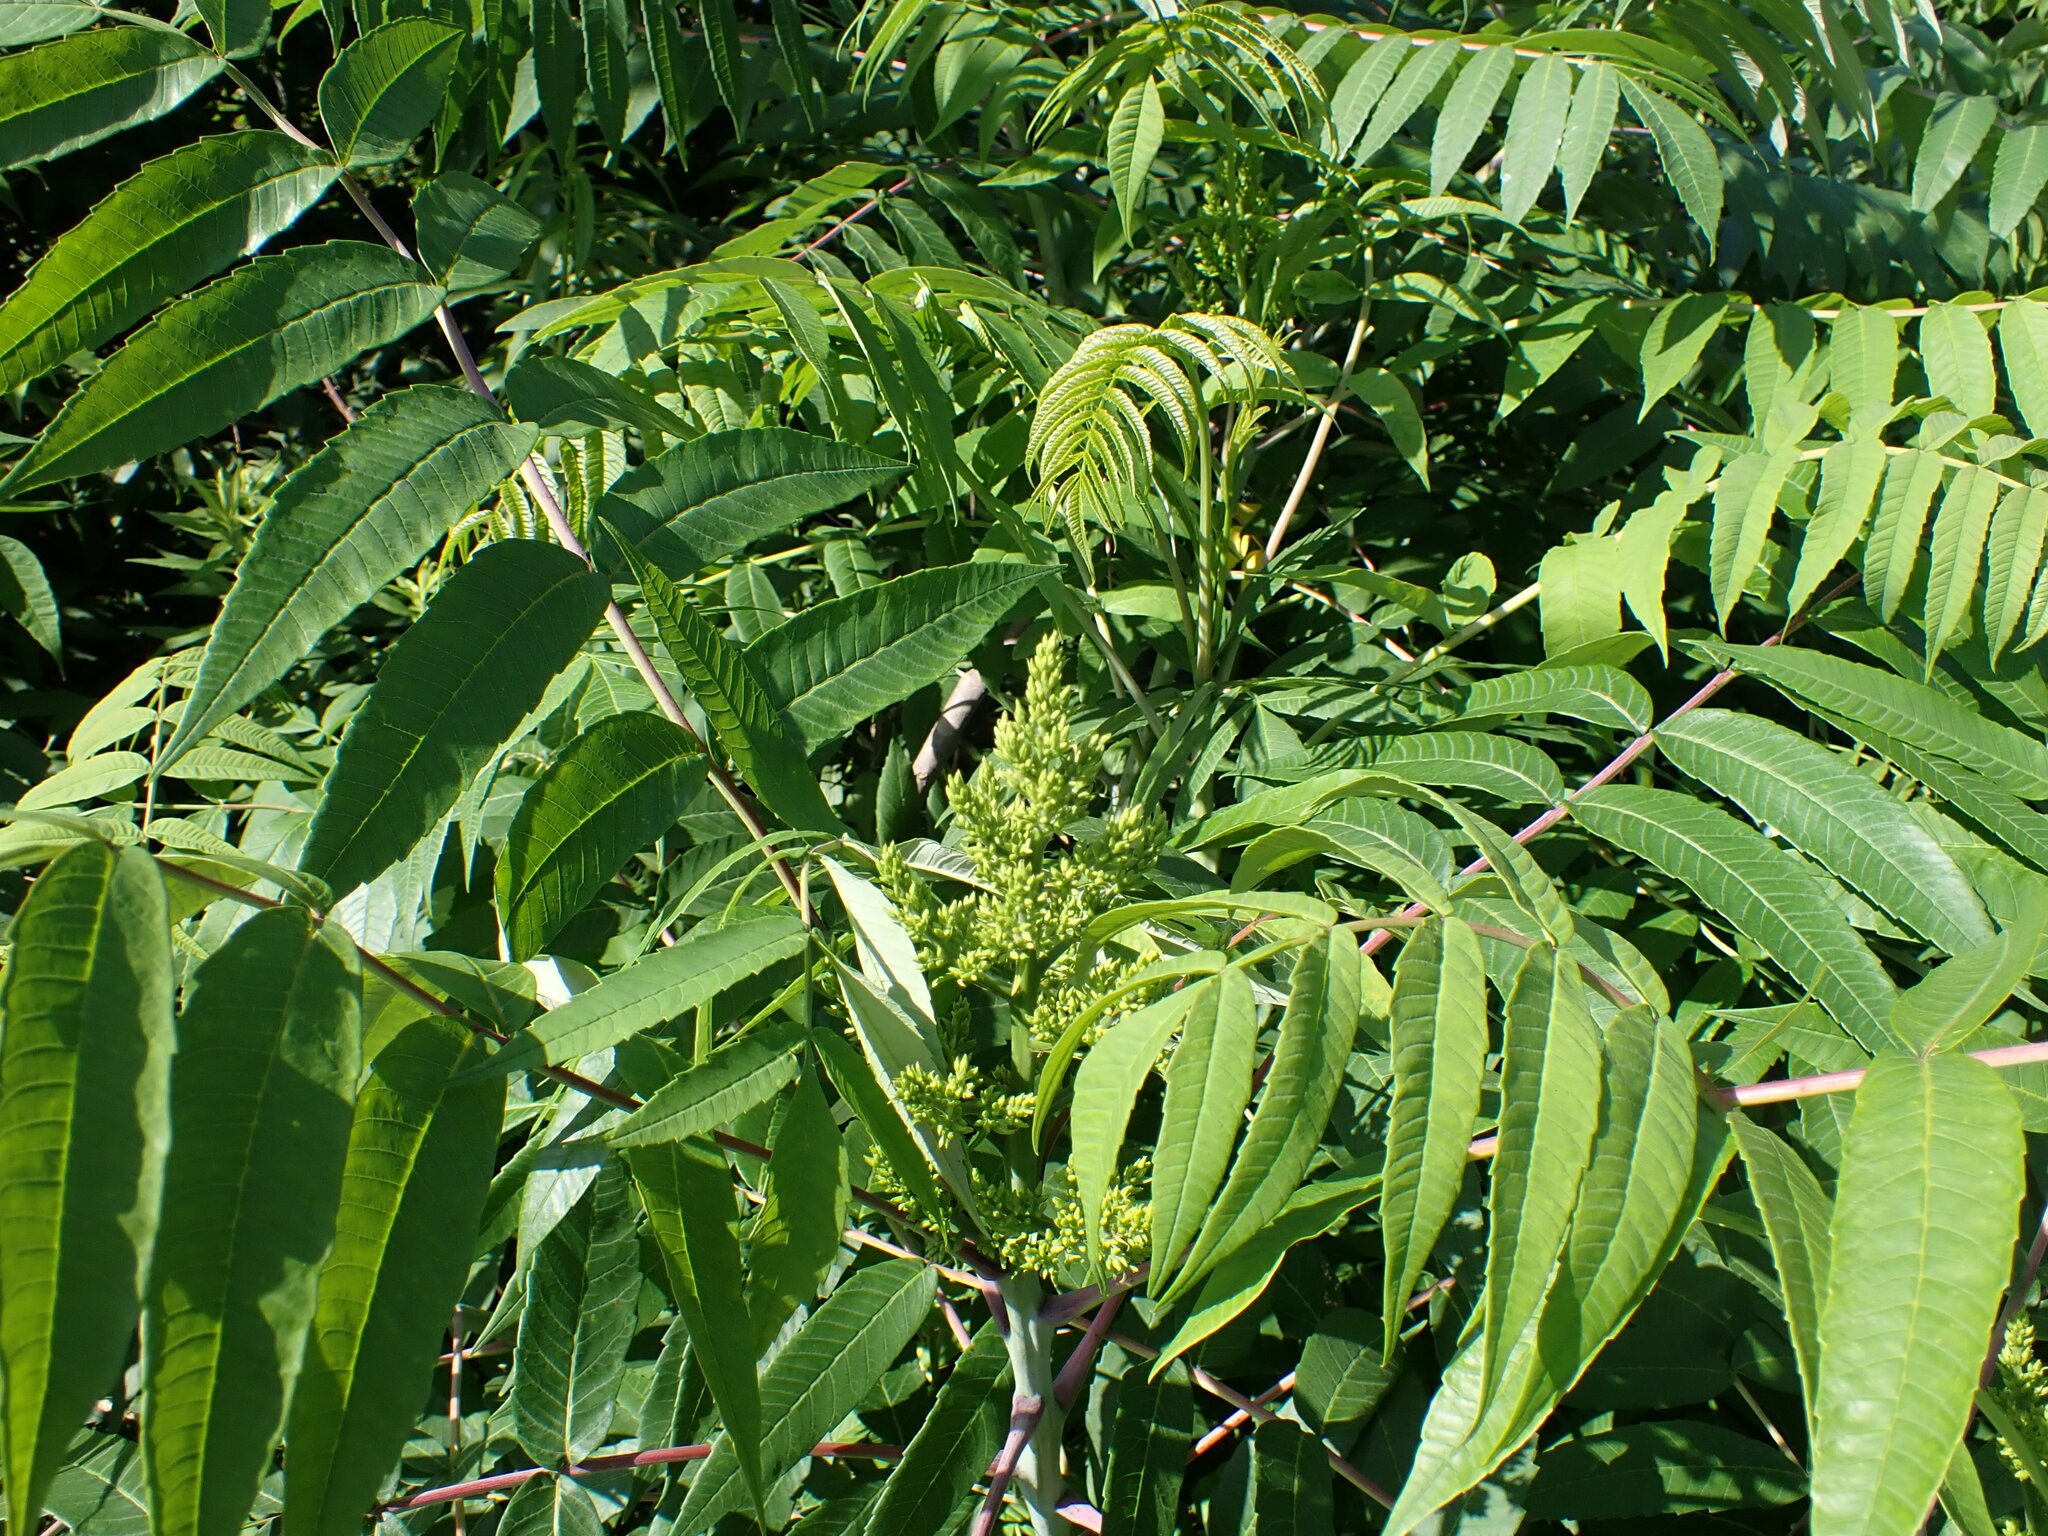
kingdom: Plantae
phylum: Tracheophyta
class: Magnoliopsida
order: Sapindales
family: Anacardiaceae
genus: Rhus
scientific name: Rhus glabra
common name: Scarlet sumac
